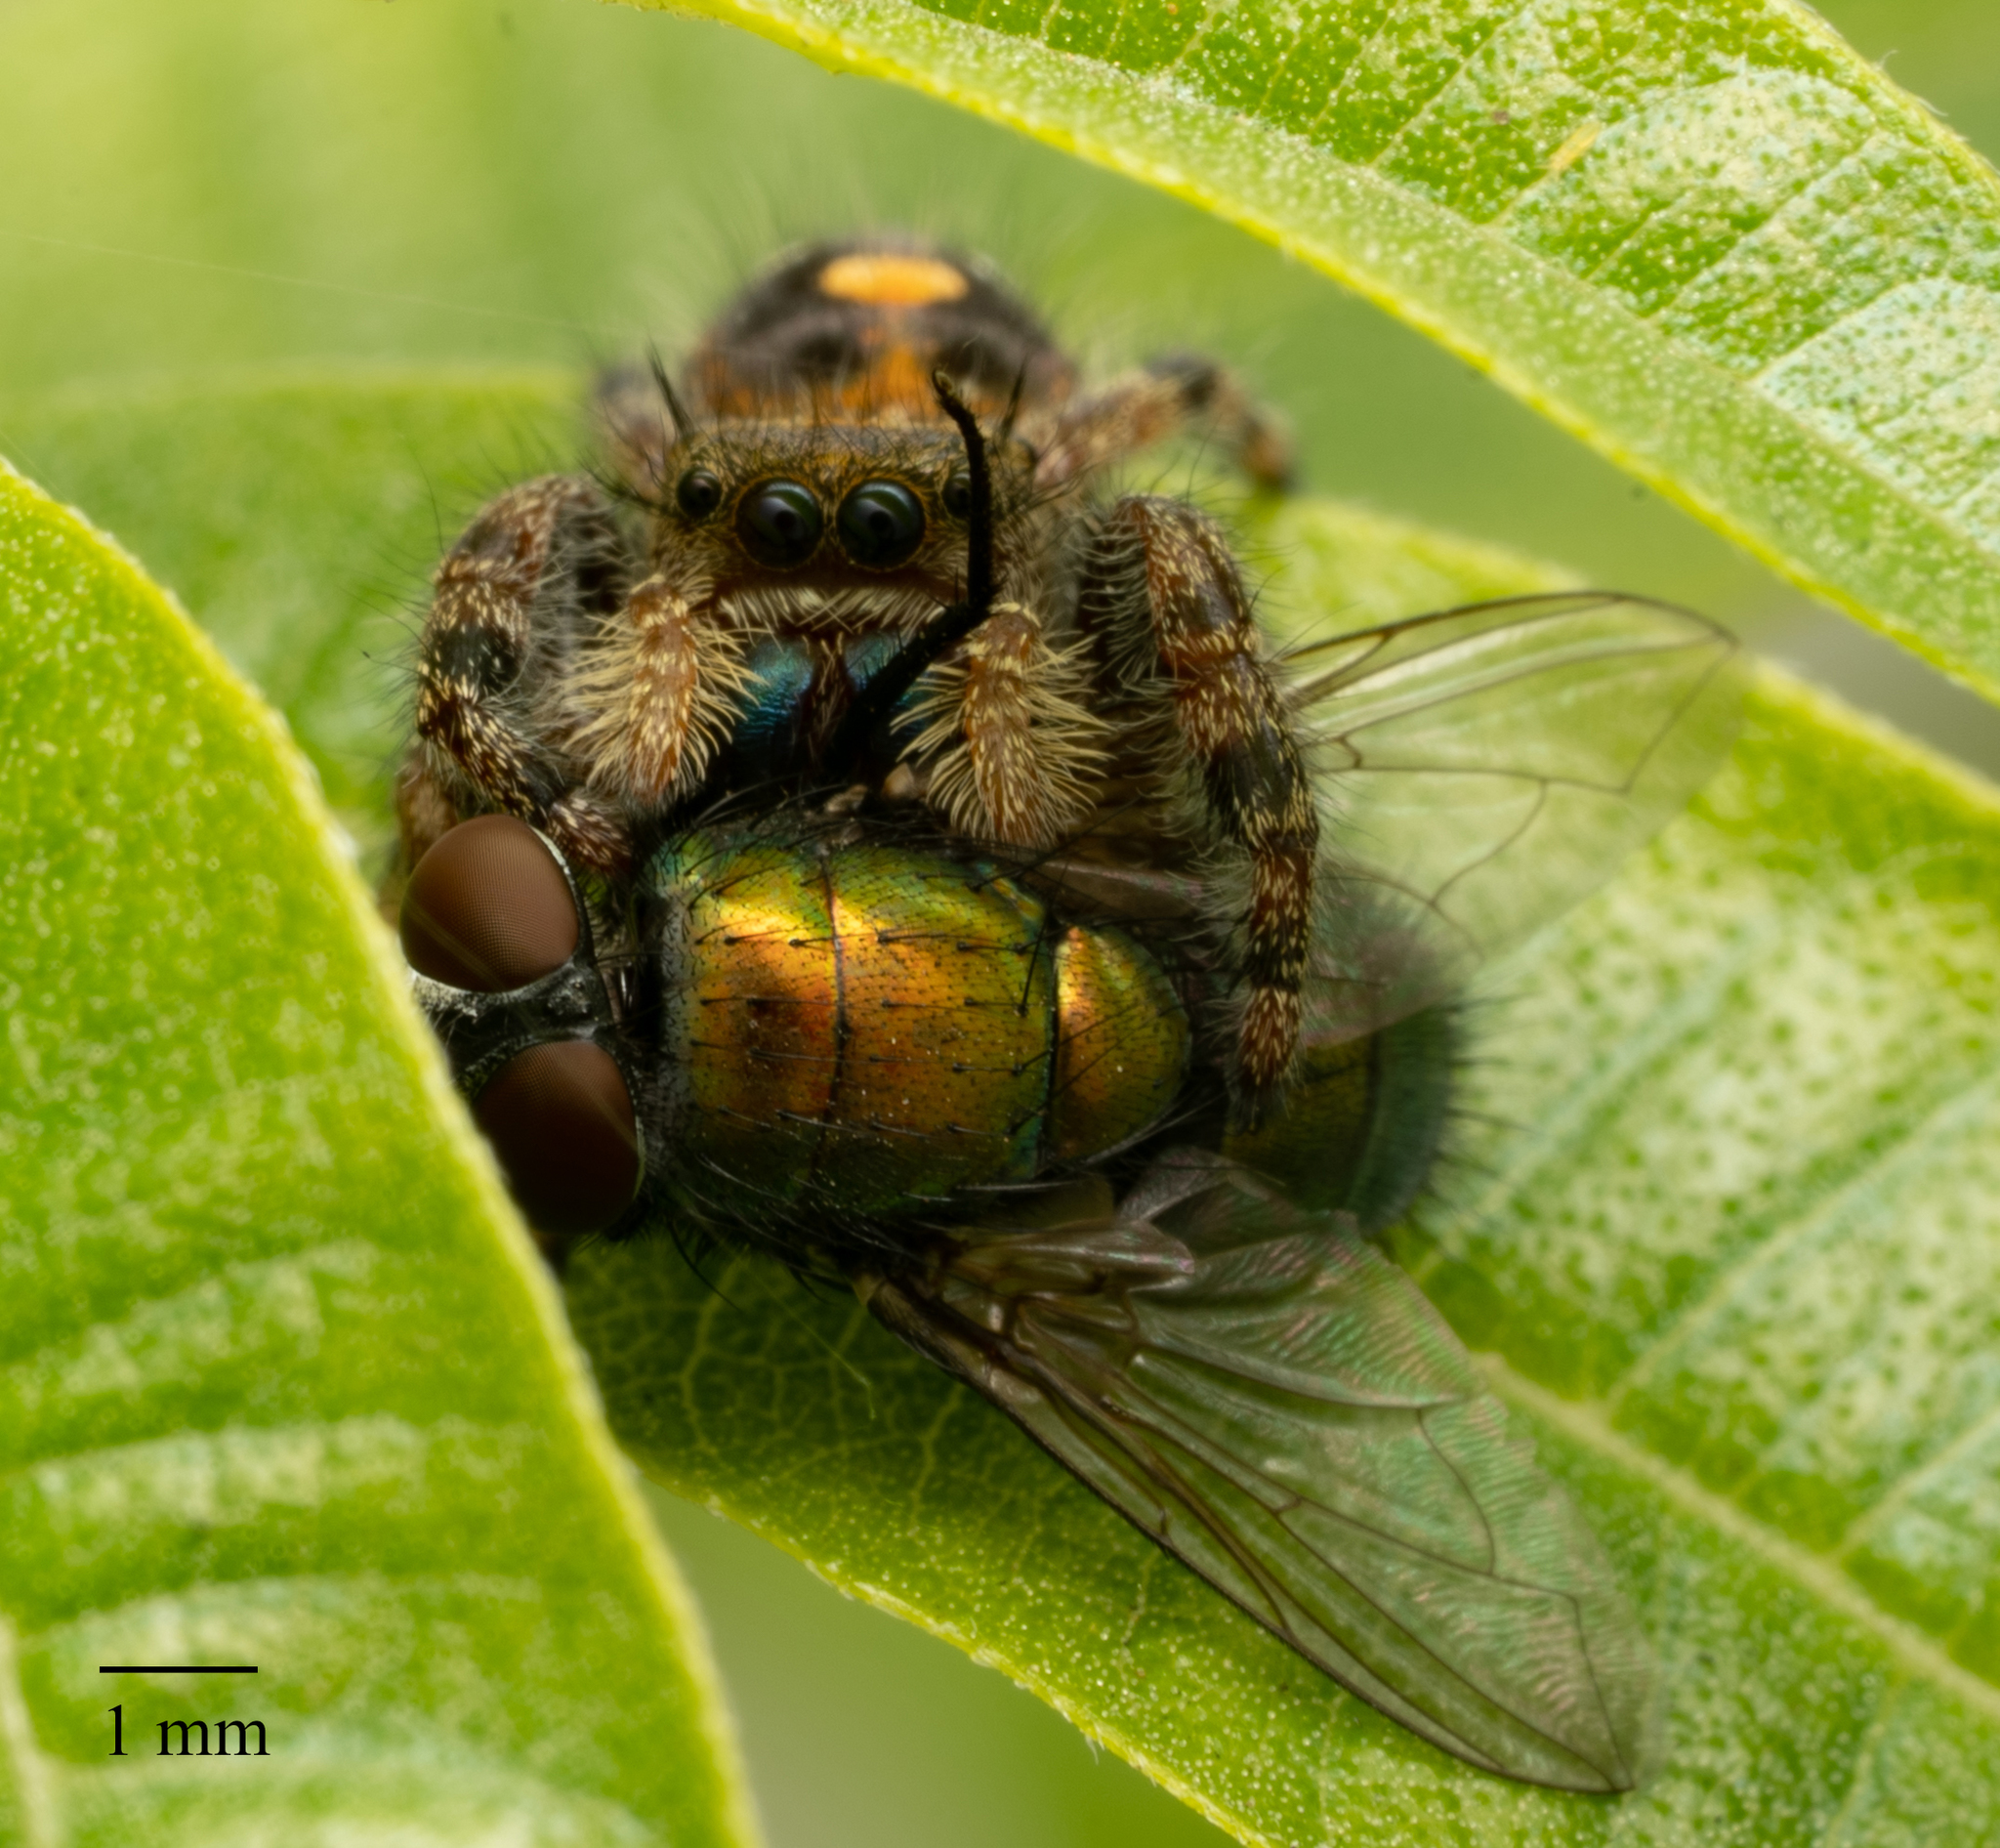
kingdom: Animalia
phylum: Arthropoda
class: Arachnida
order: Araneae
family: Salticidae
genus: Phidippus
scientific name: Phidippus audax
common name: Bold jumper
